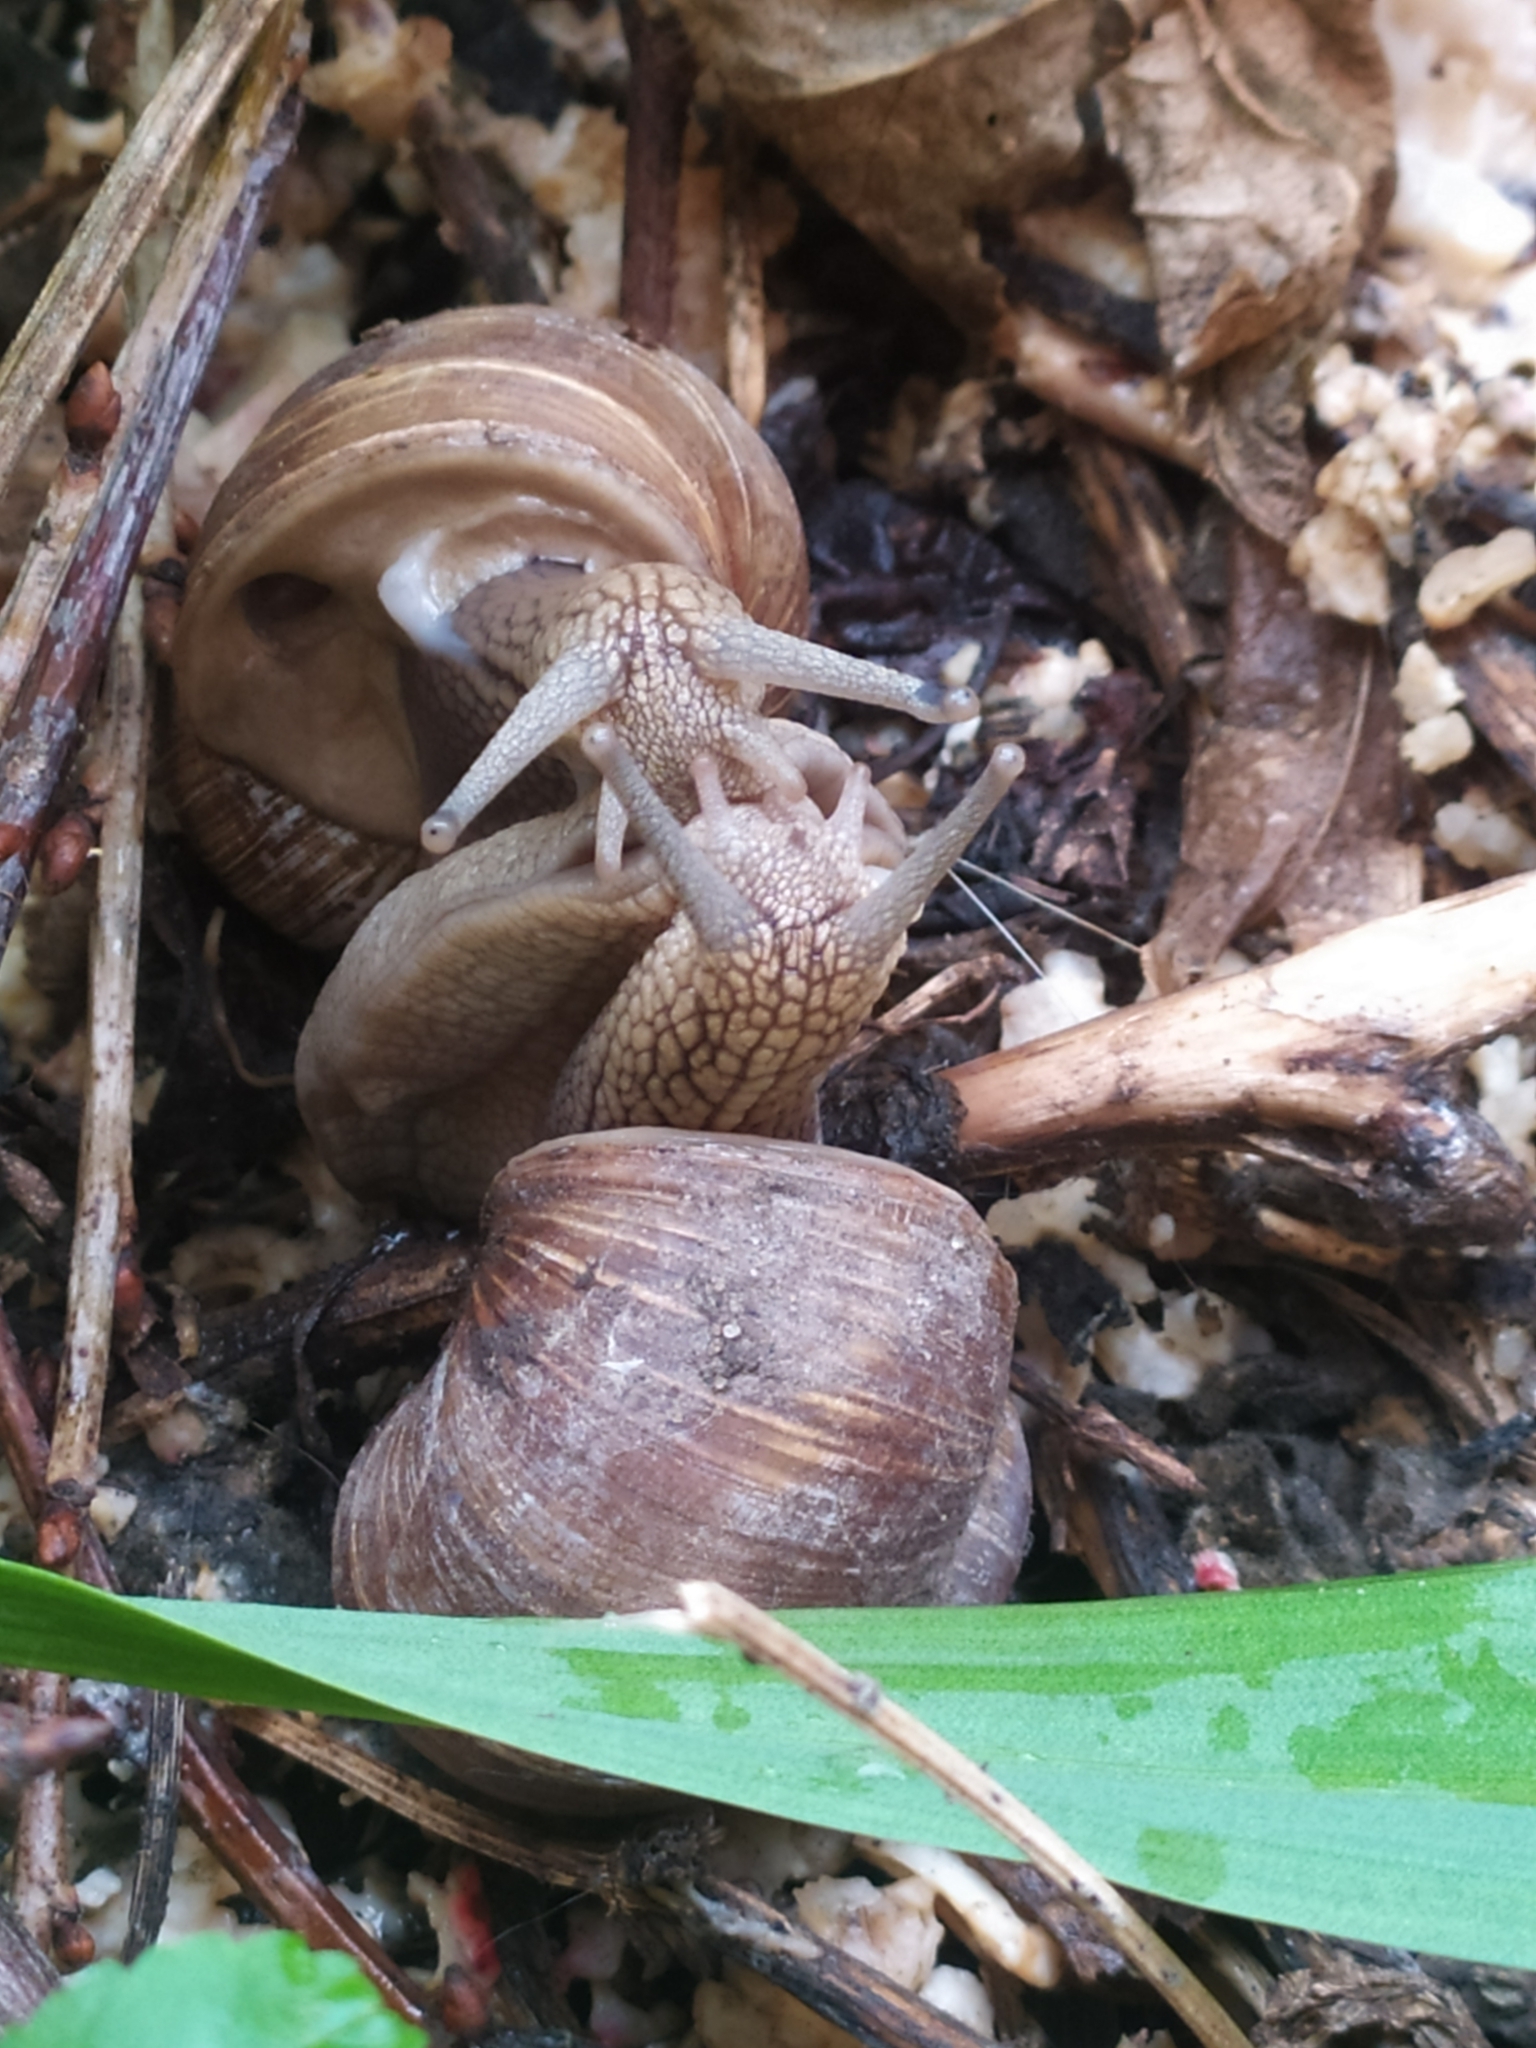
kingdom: Animalia
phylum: Mollusca
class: Gastropoda
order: Stylommatophora
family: Helicidae
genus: Helix
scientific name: Helix pomatia
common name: Roman snail
